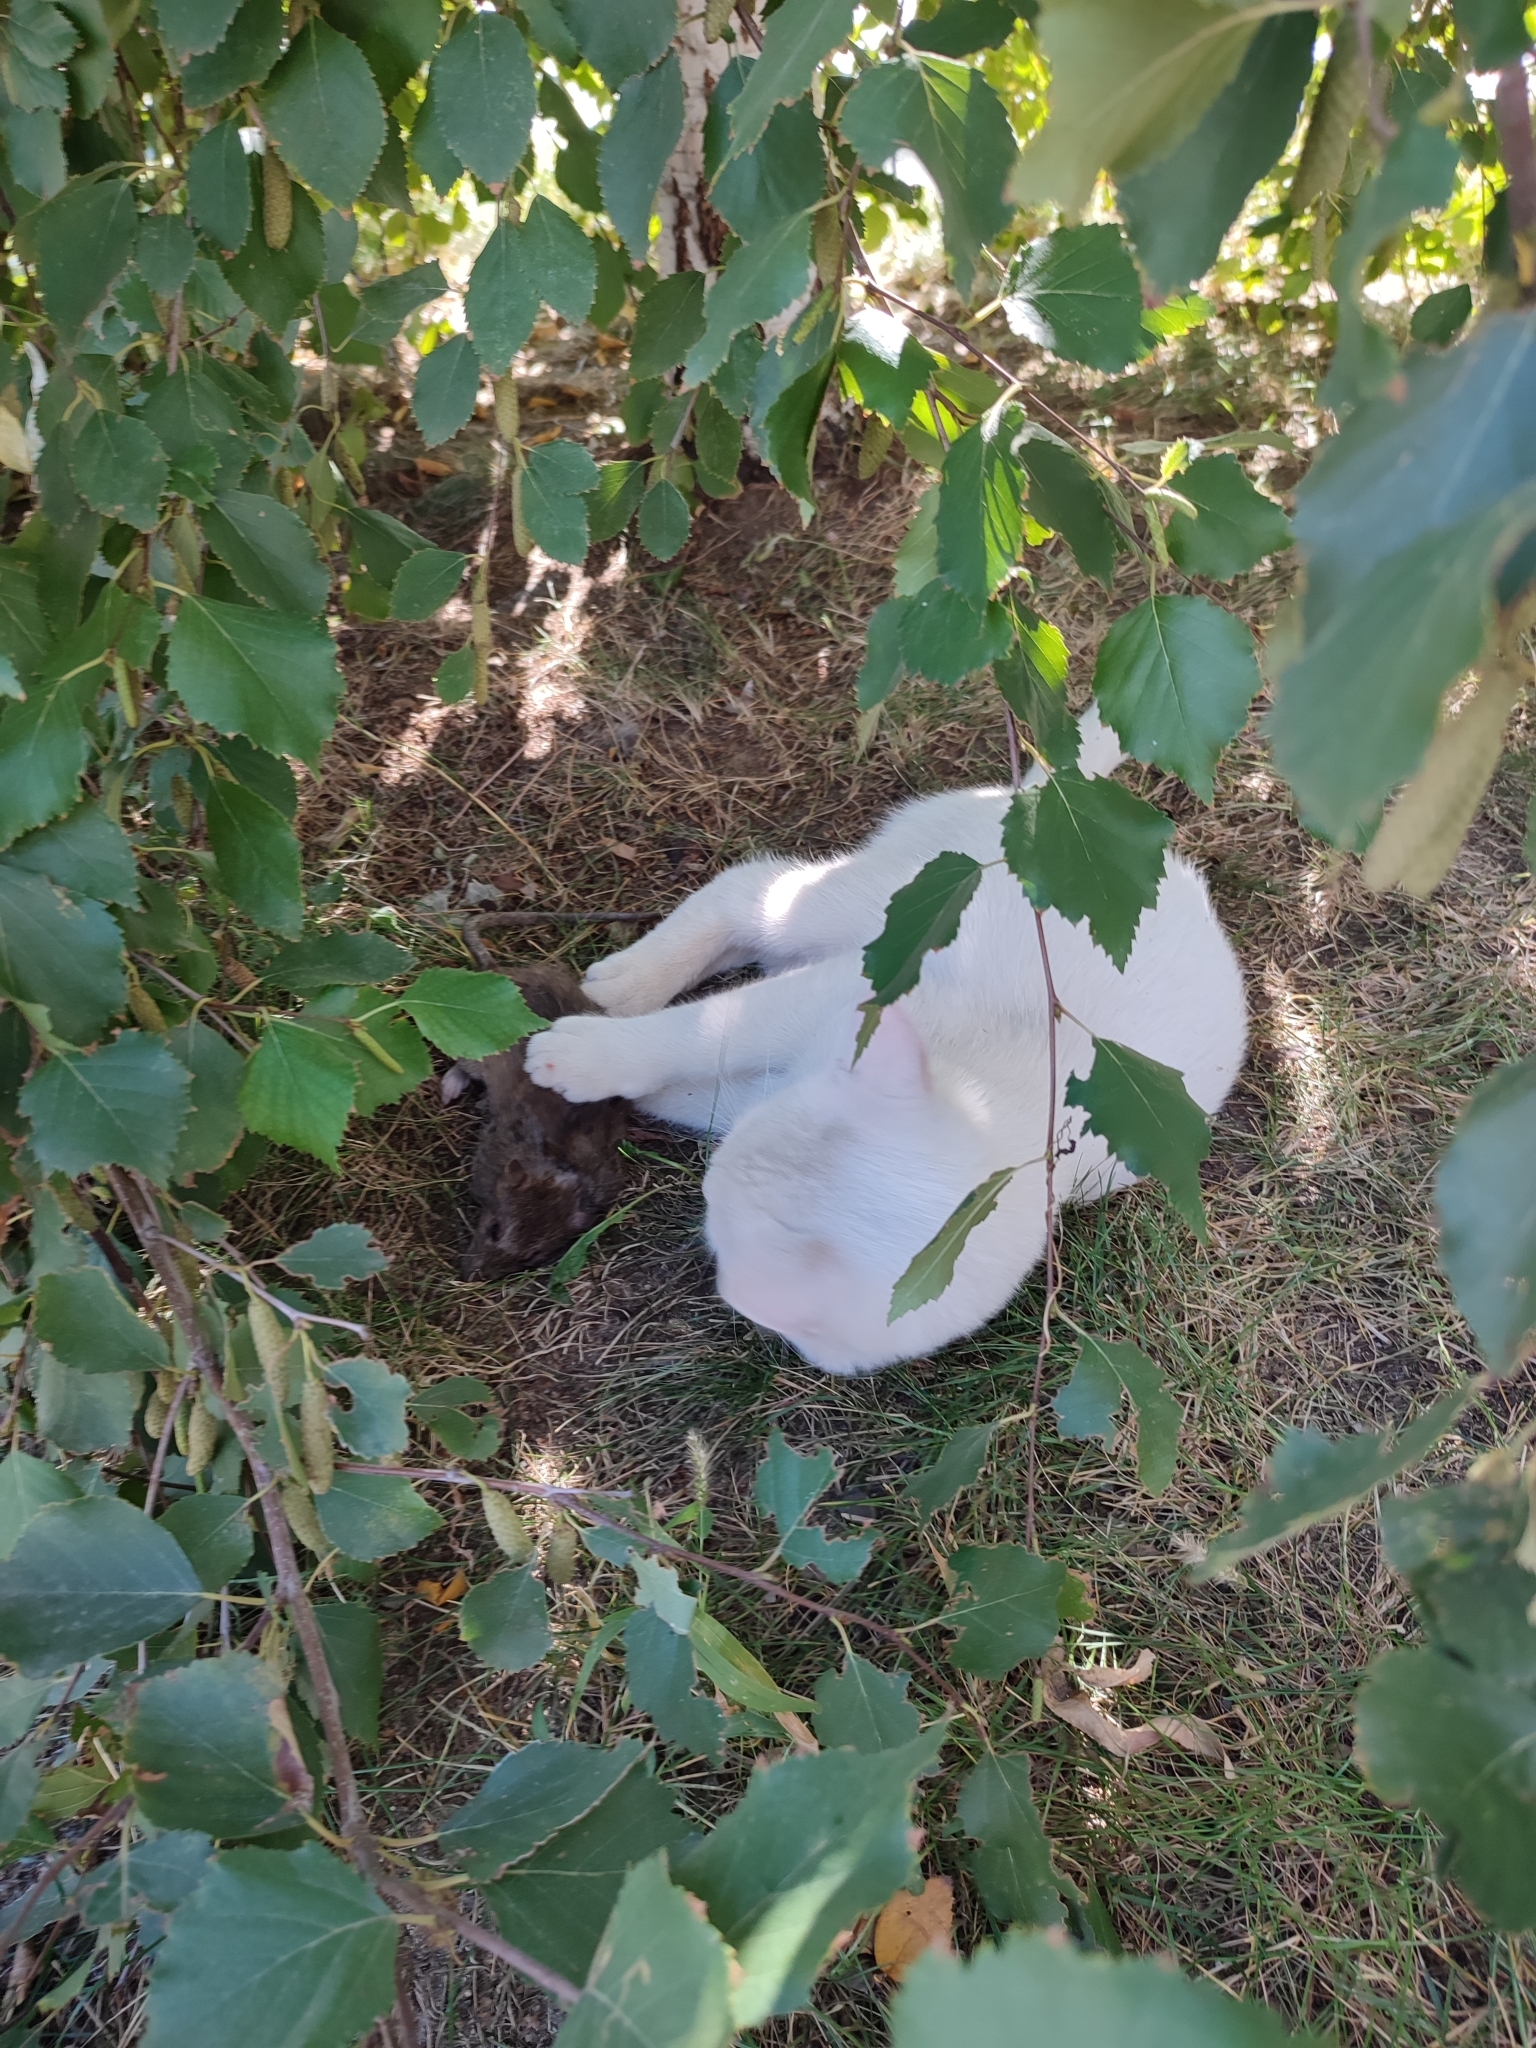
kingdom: Animalia
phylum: Chordata
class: Mammalia
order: Carnivora
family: Felidae
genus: Felis
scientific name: Felis catus
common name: Domestic cat
